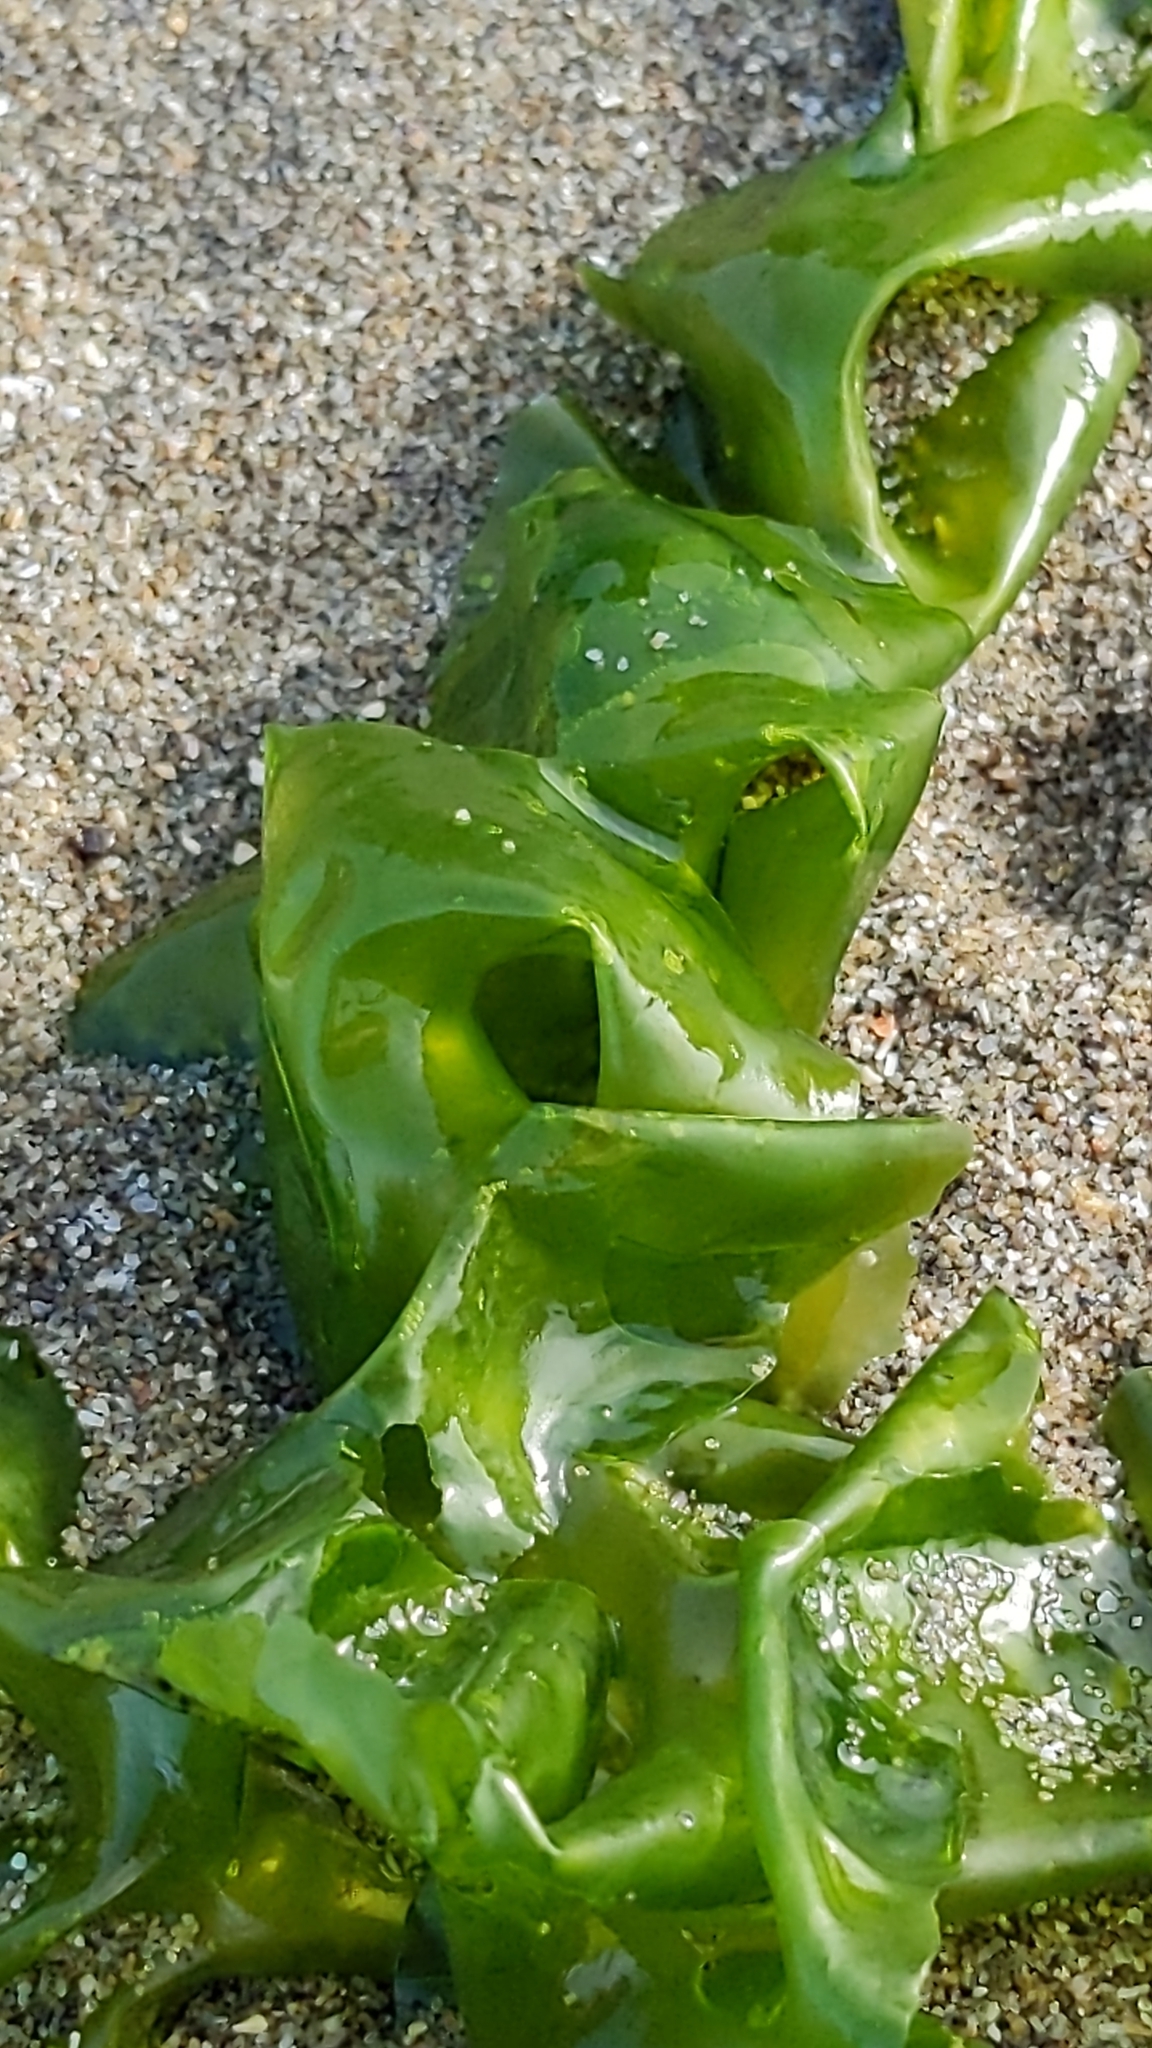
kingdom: Plantae
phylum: Chlorophyta
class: Ulvophyceae
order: Ulvales
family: Ulvaceae
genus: Ulva
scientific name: Ulva
